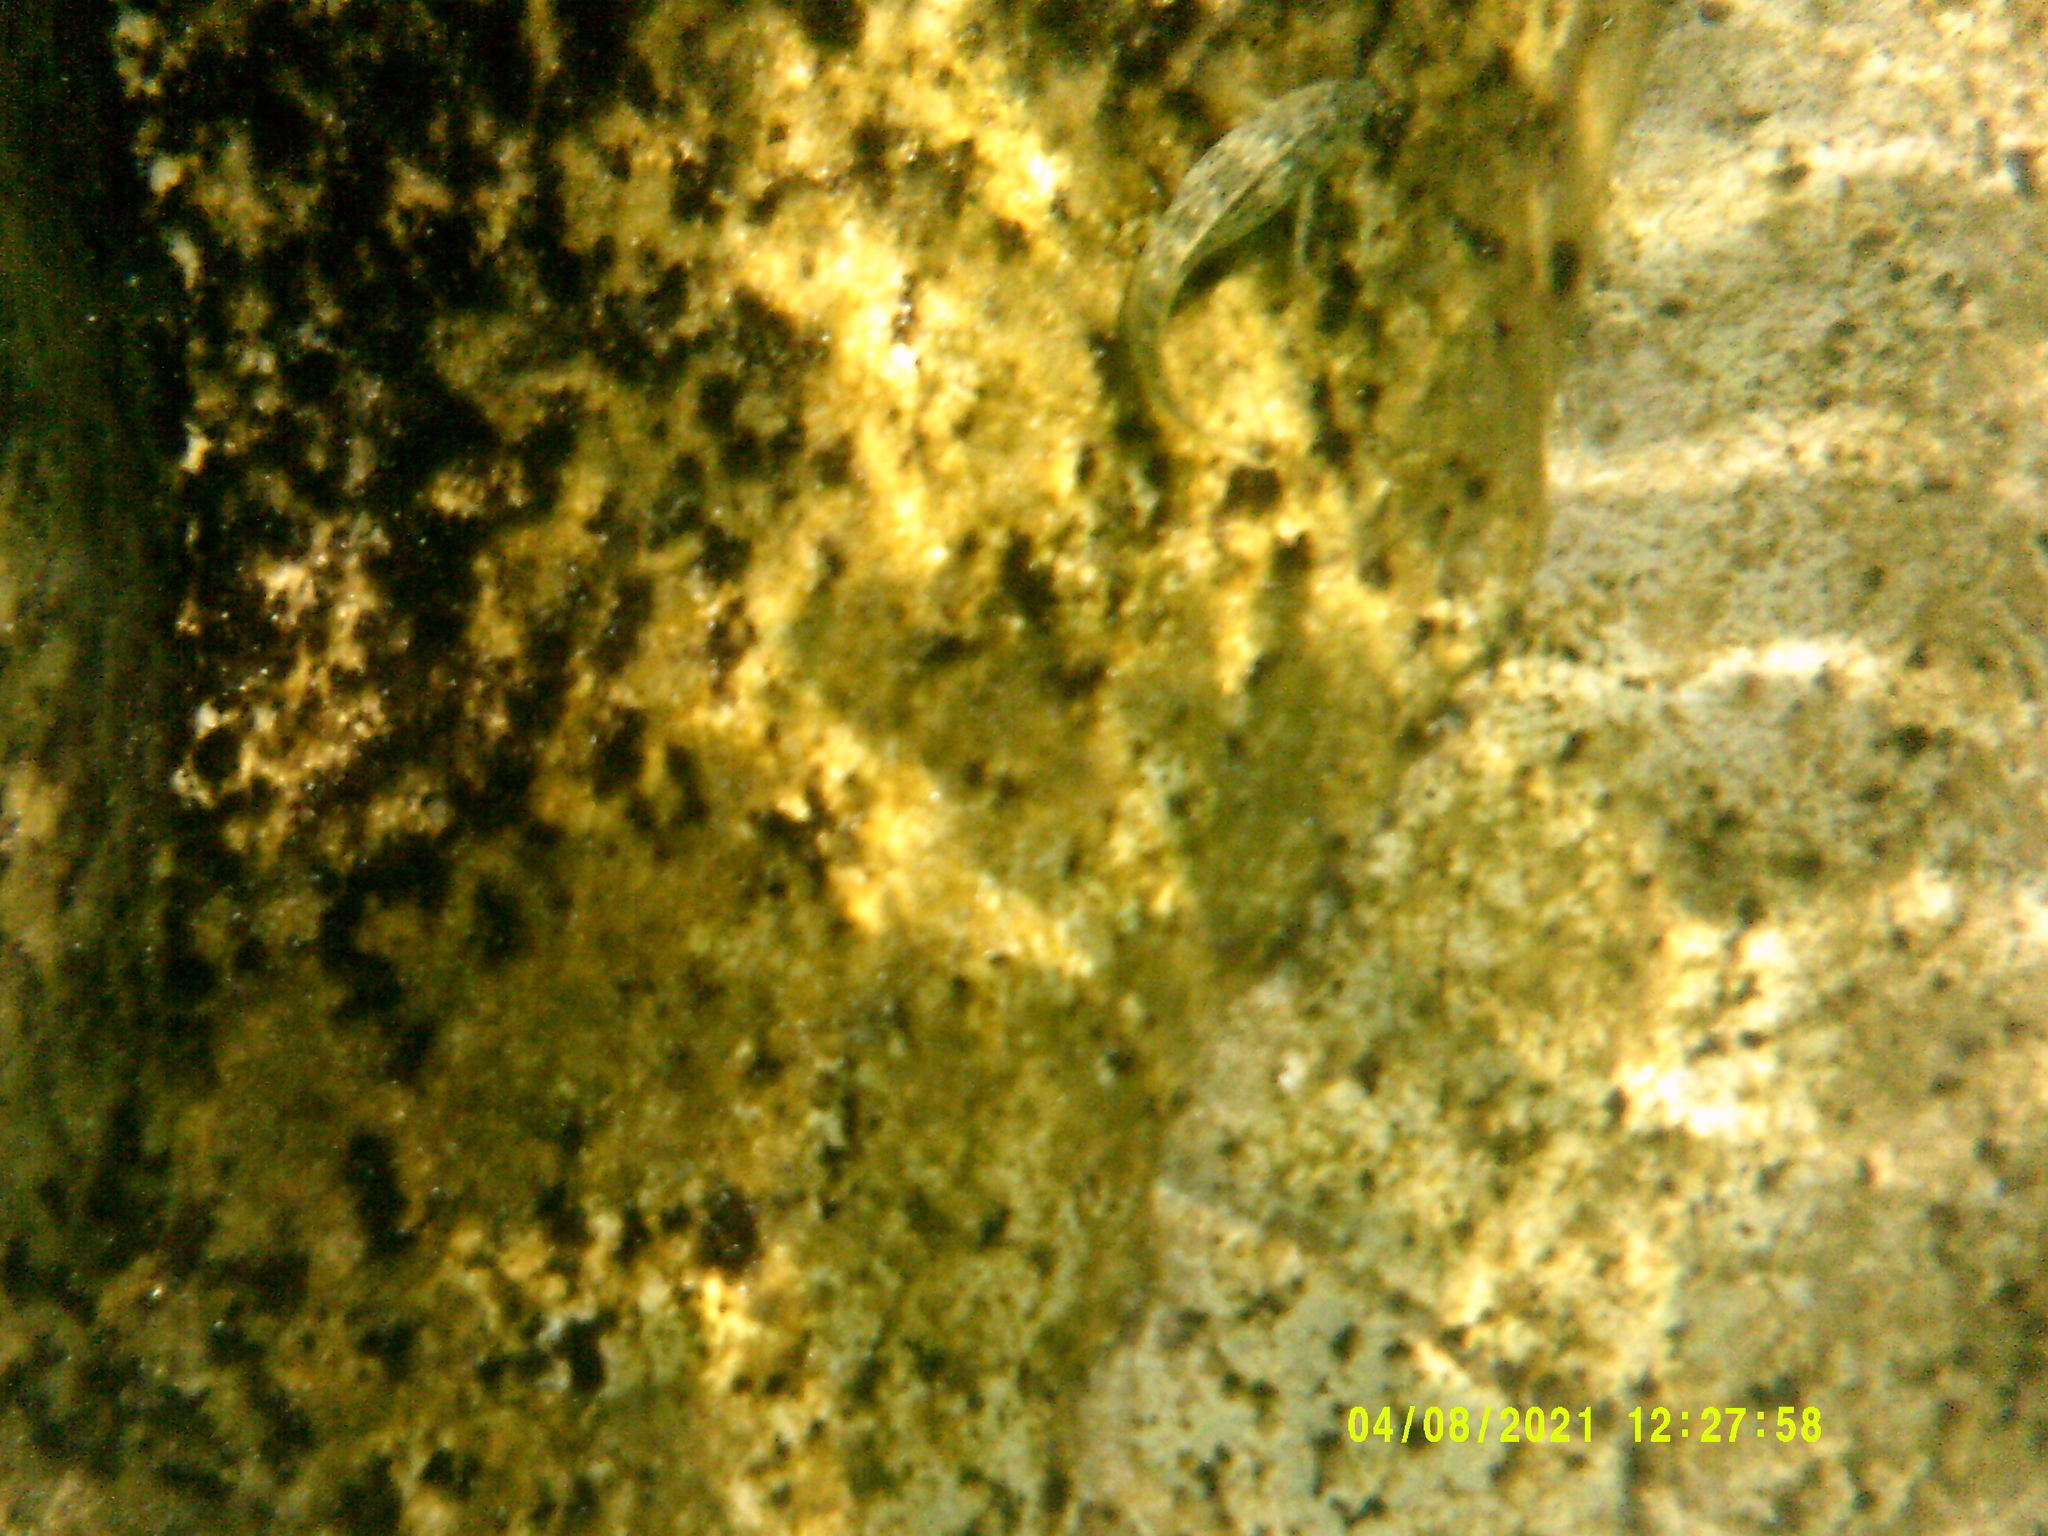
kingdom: Animalia
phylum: Chordata
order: Perciformes
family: Blenniidae
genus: Parablennius
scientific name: Parablennius sanguinolentus
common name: Black sea blenny
